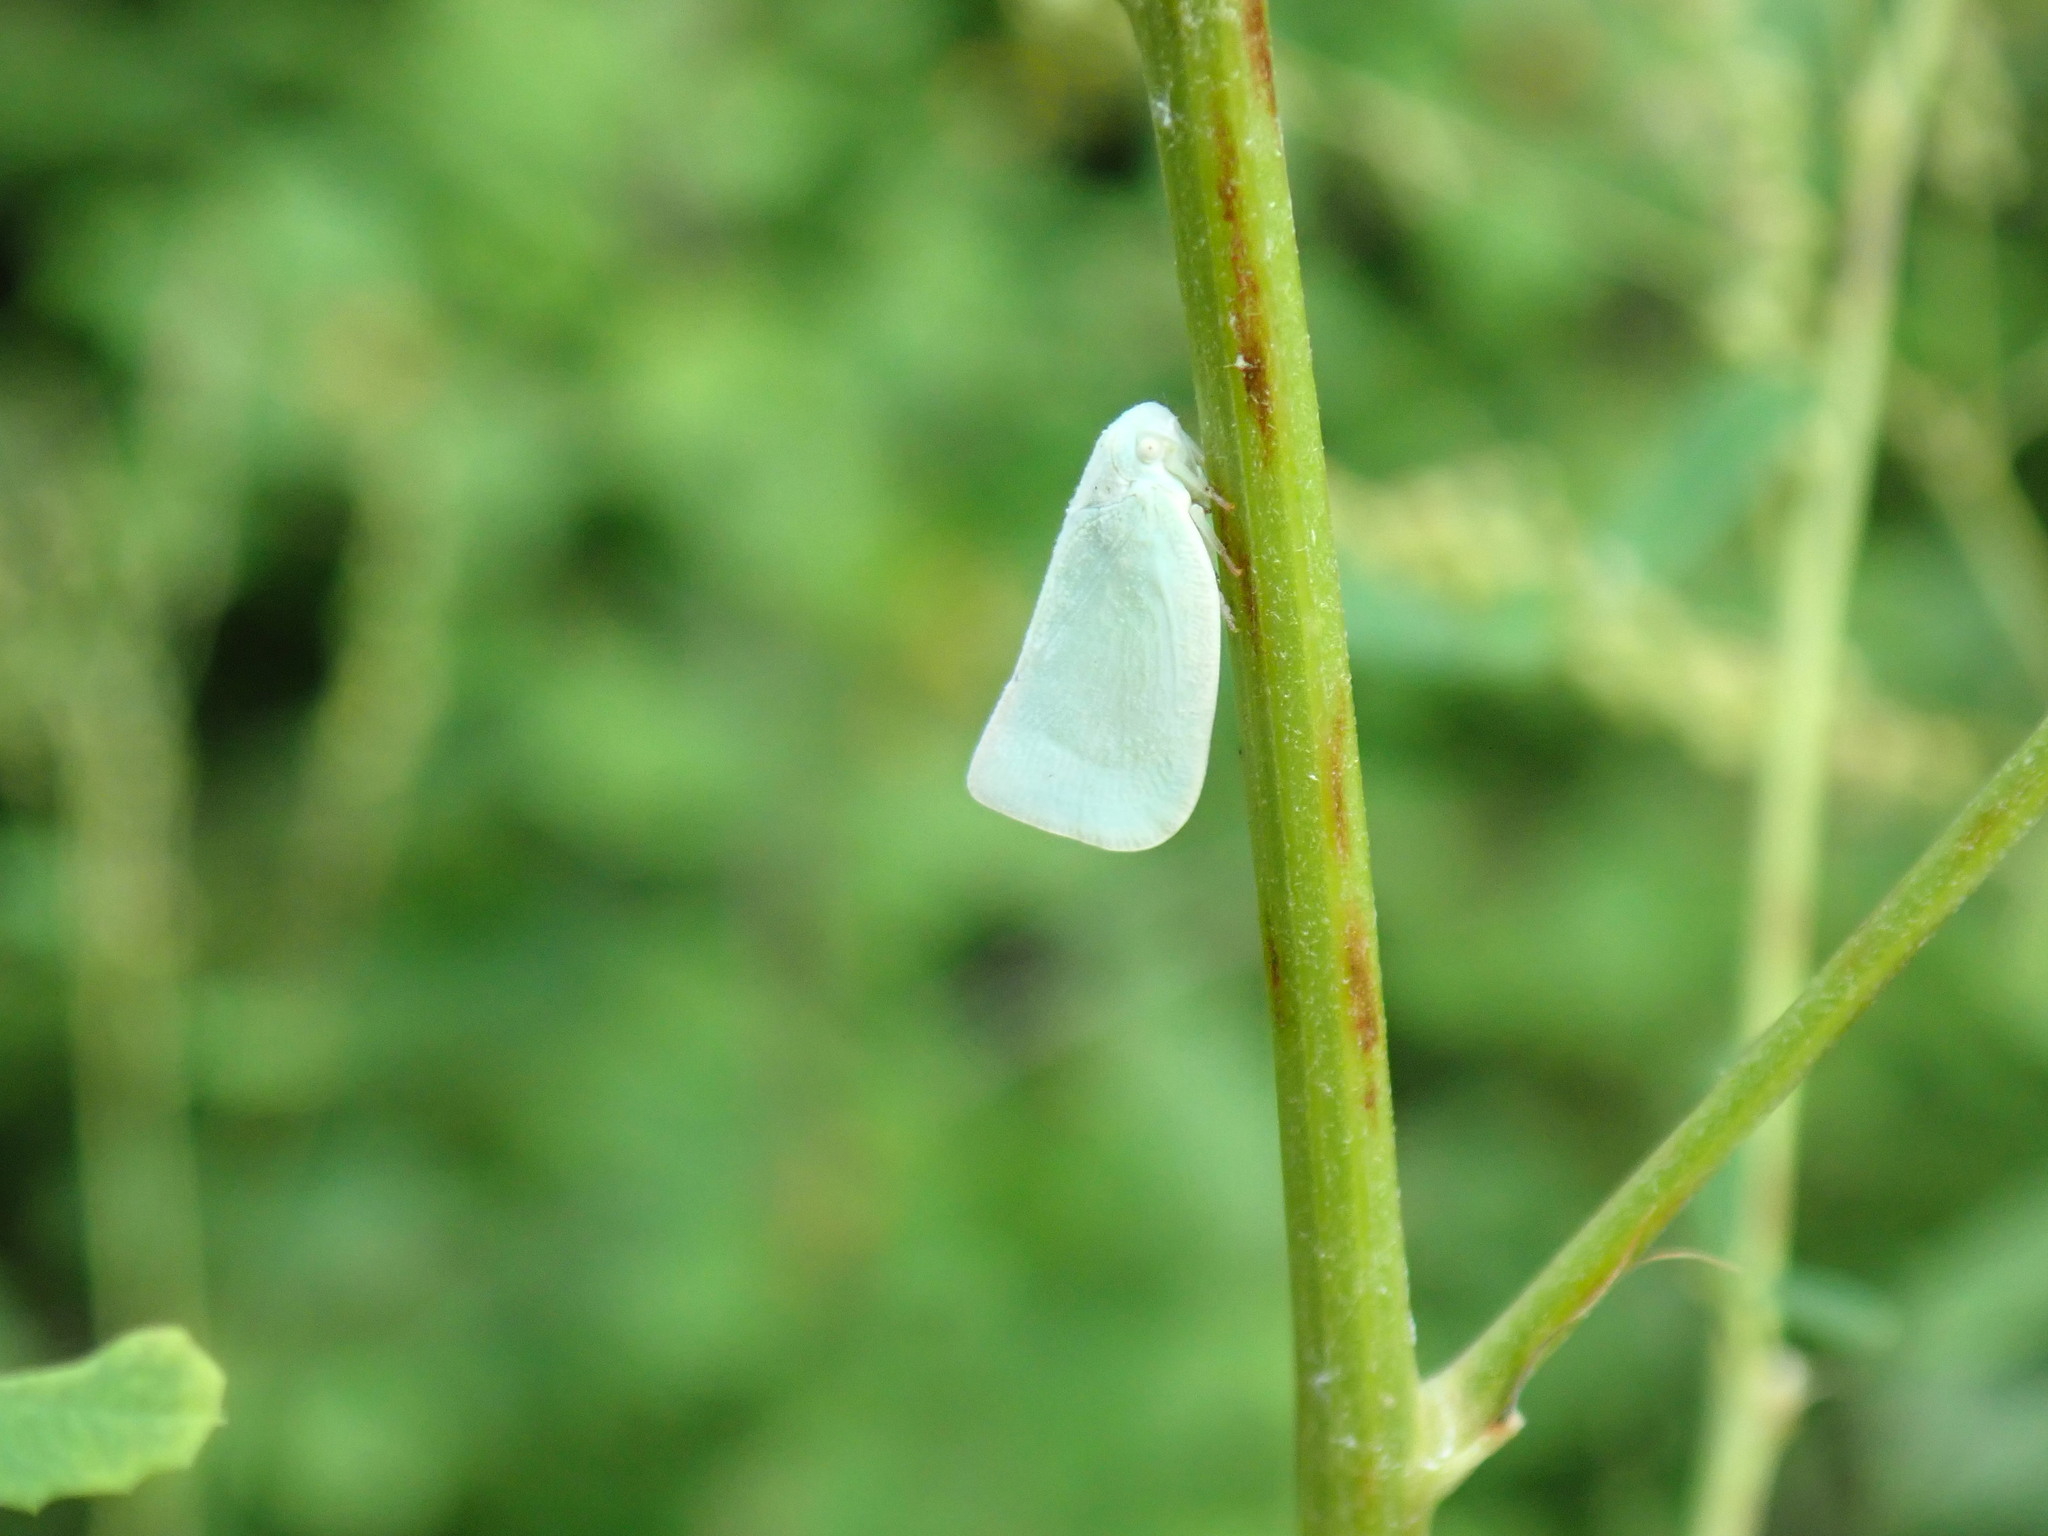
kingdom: Animalia
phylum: Arthropoda
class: Insecta
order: Hemiptera
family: Flatidae
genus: Flatormenis
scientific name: Flatormenis proxima
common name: Northern flatid planthopper
